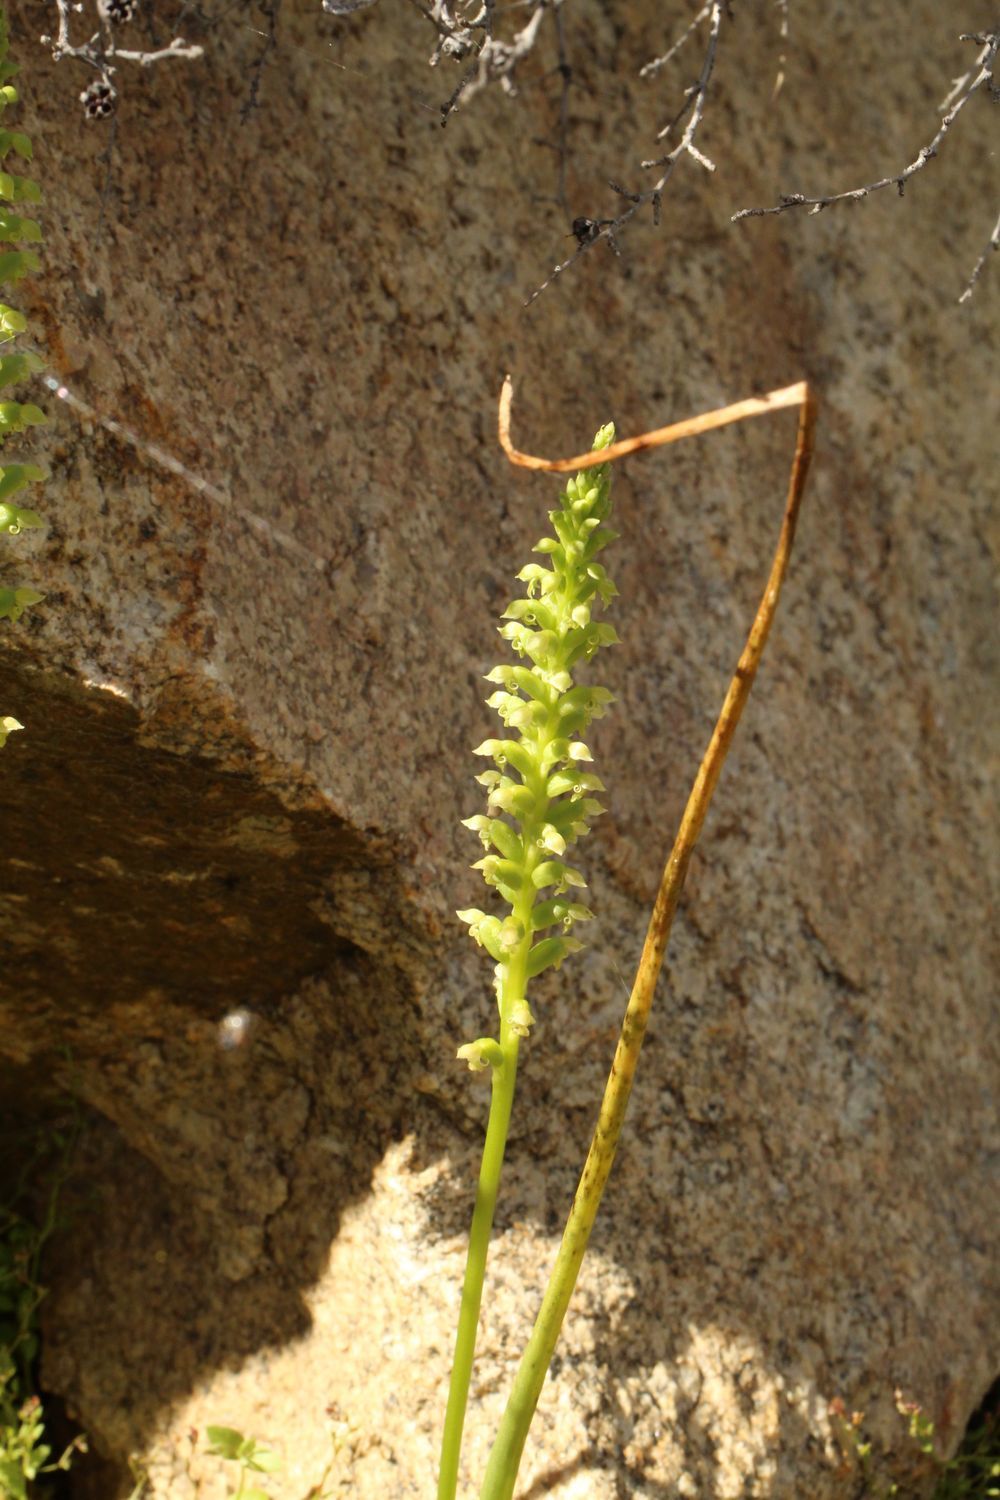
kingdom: Plantae
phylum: Tracheophyta
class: Liliopsida
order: Asparagales
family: Orchidaceae
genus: Microtis
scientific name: Microtis media
